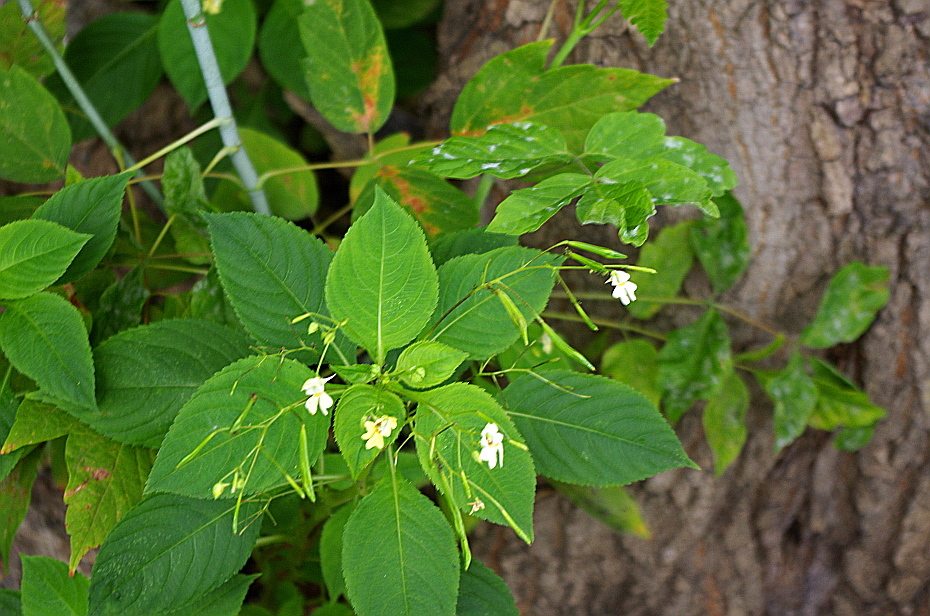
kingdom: Plantae
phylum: Tracheophyta
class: Magnoliopsida
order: Ericales
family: Balsaminaceae
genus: Impatiens
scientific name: Impatiens parviflora
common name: Small balsam
